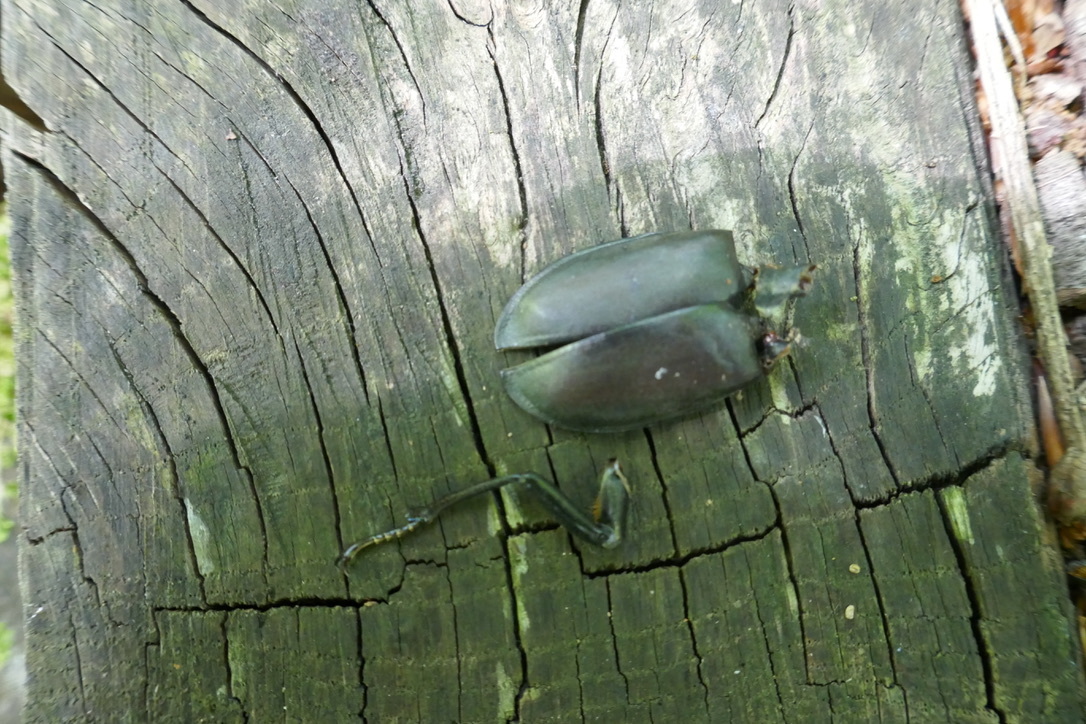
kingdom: Animalia
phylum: Arthropoda
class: Insecta
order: Coleoptera
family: Lucanidae
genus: Lucanus
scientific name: Lucanus cervus
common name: Stag beetle
